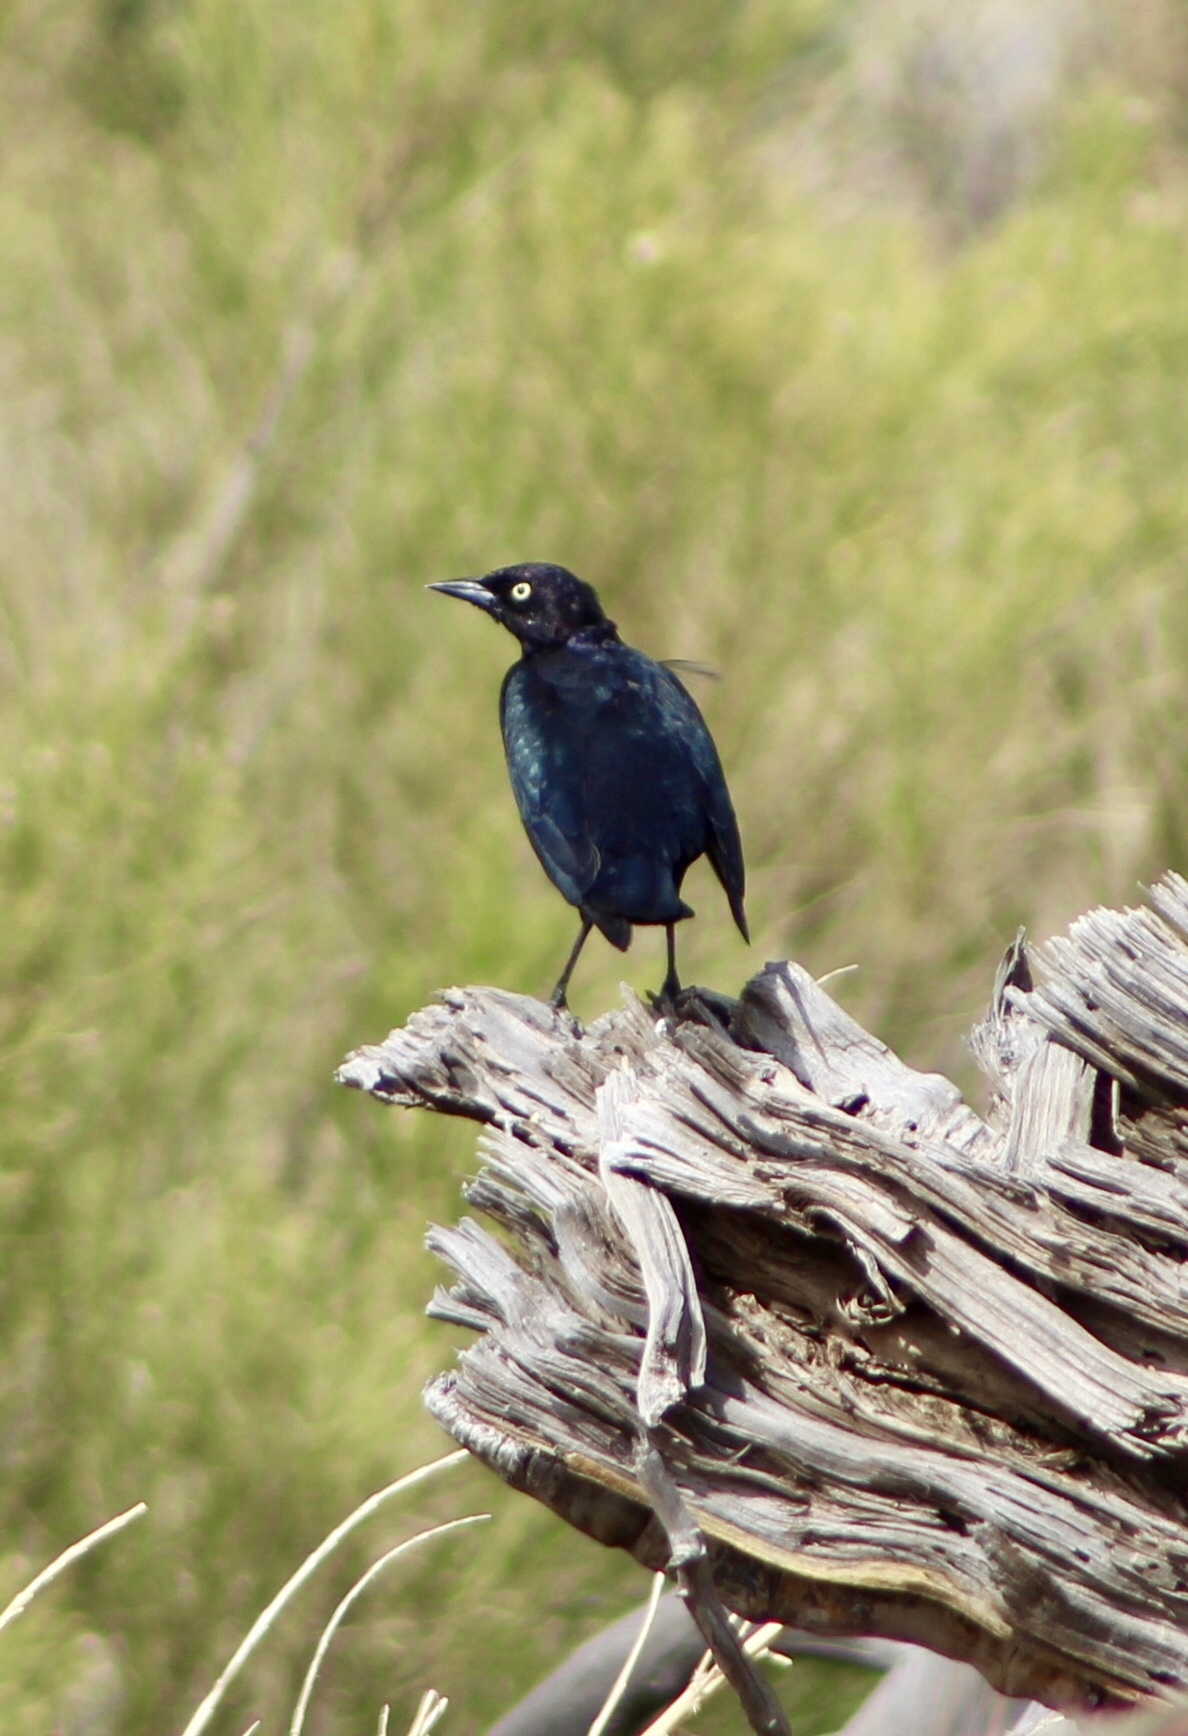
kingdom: Animalia
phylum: Chordata
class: Aves
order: Passeriformes
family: Icteridae
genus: Euphagus
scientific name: Euphagus cyanocephalus
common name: Brewer's blackbird
